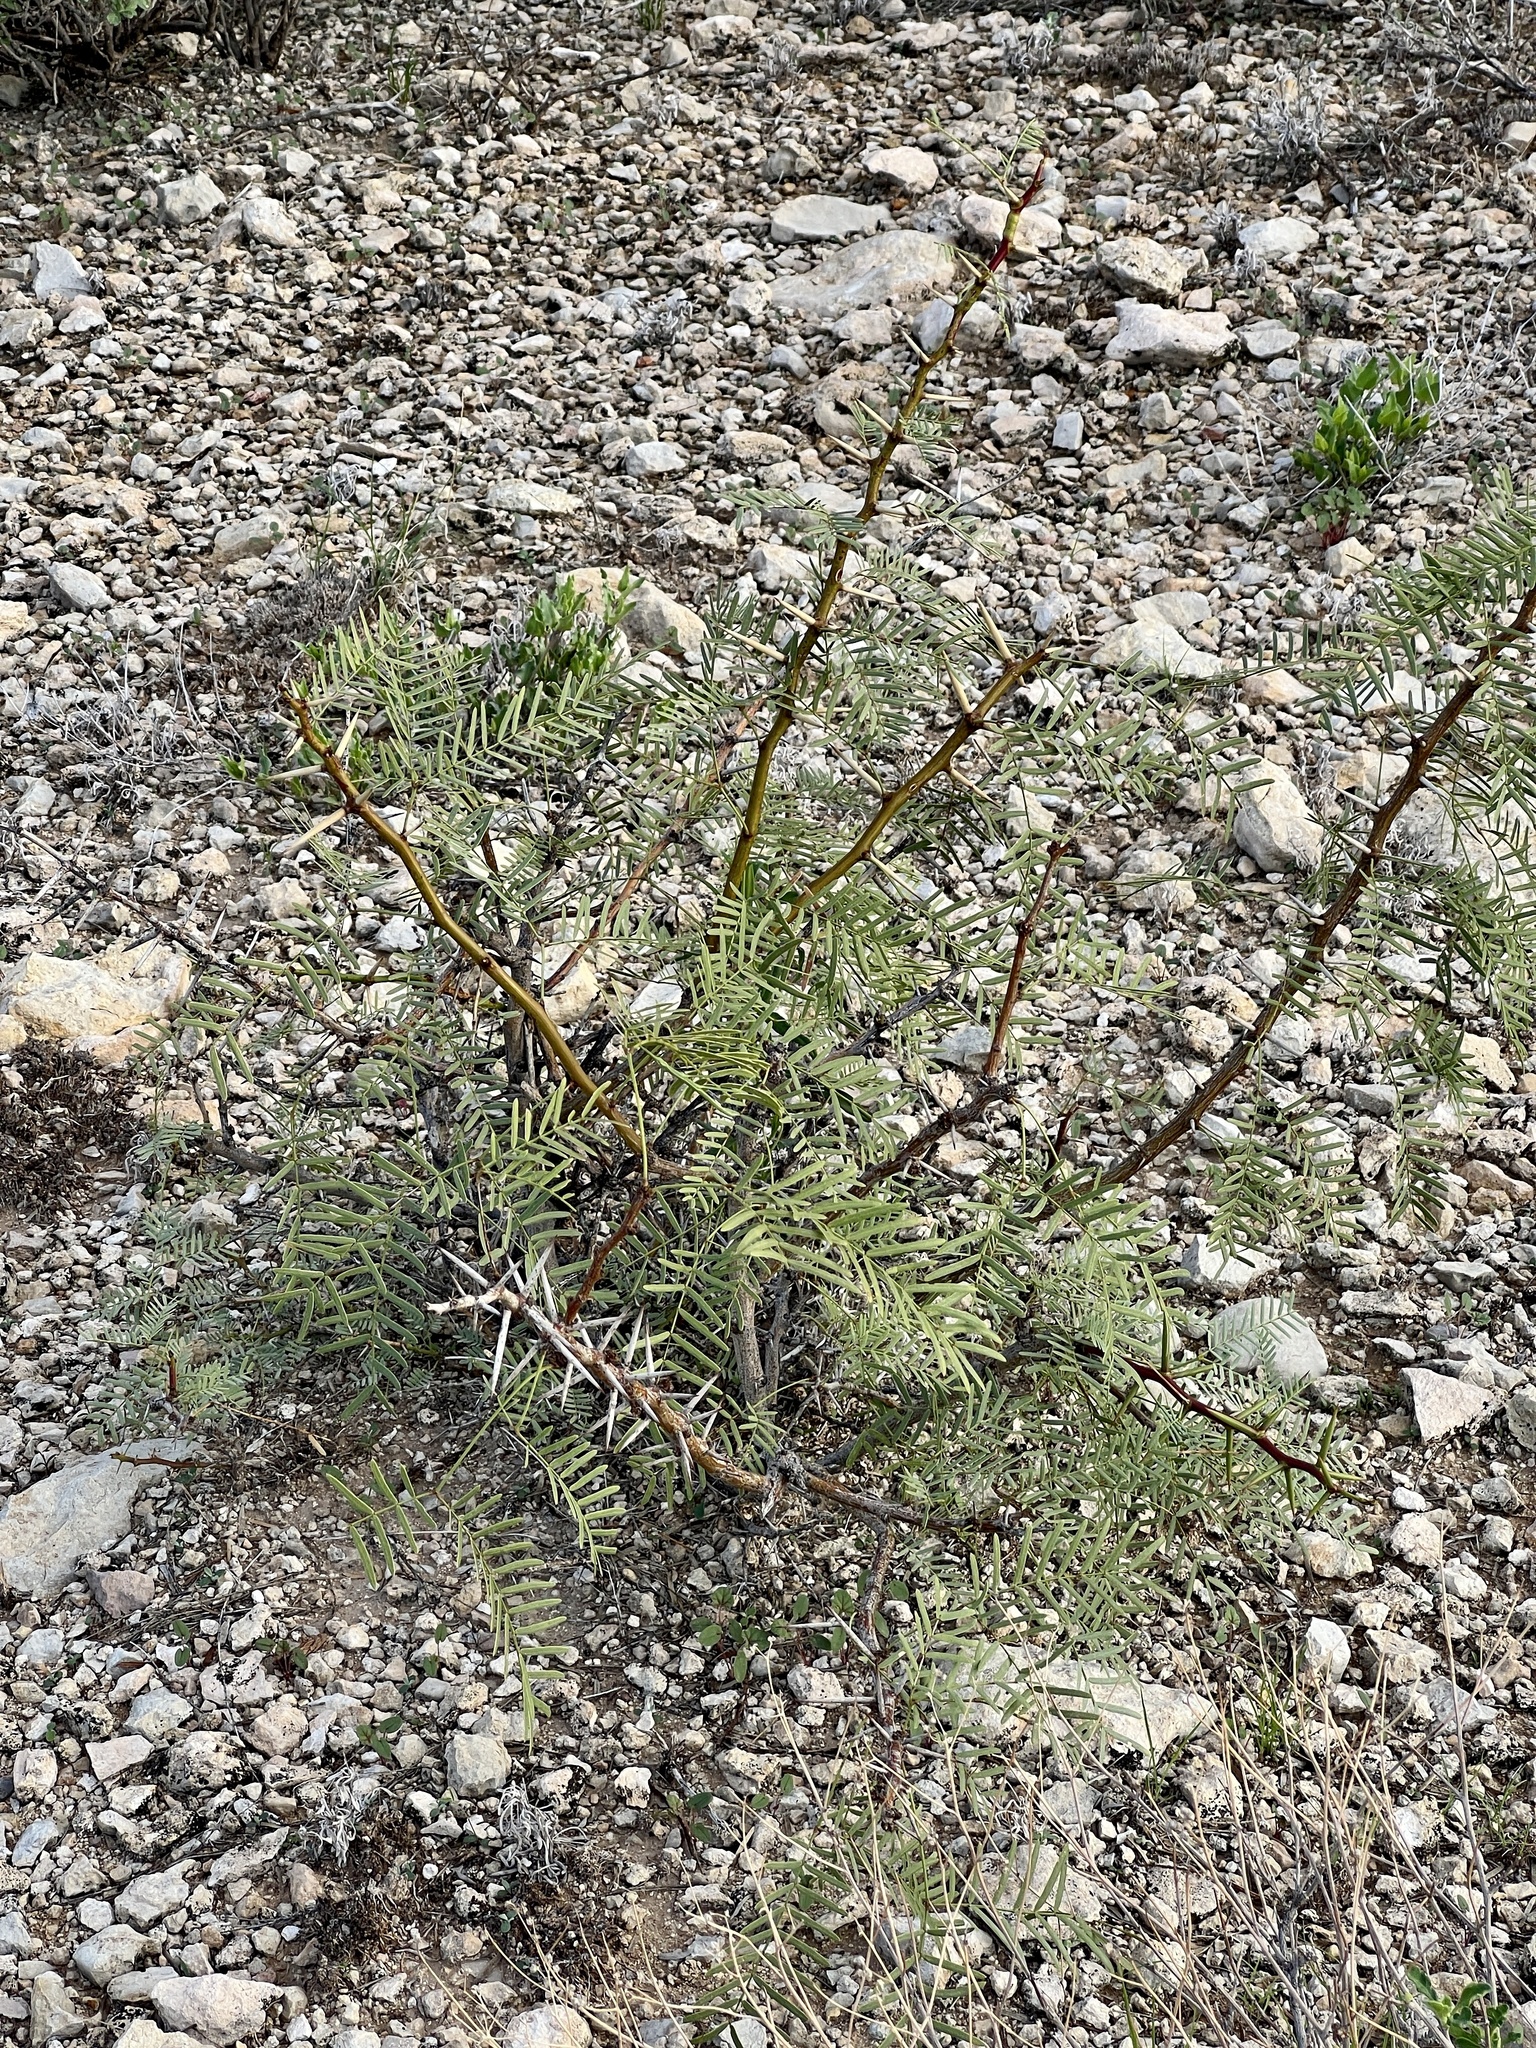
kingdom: Plantae
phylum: Tracheophyta
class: Magnoliopsida
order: Fabales
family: Fabaceae
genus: Prosopis
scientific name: Prosopis glandulosa
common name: Honey mesquite
